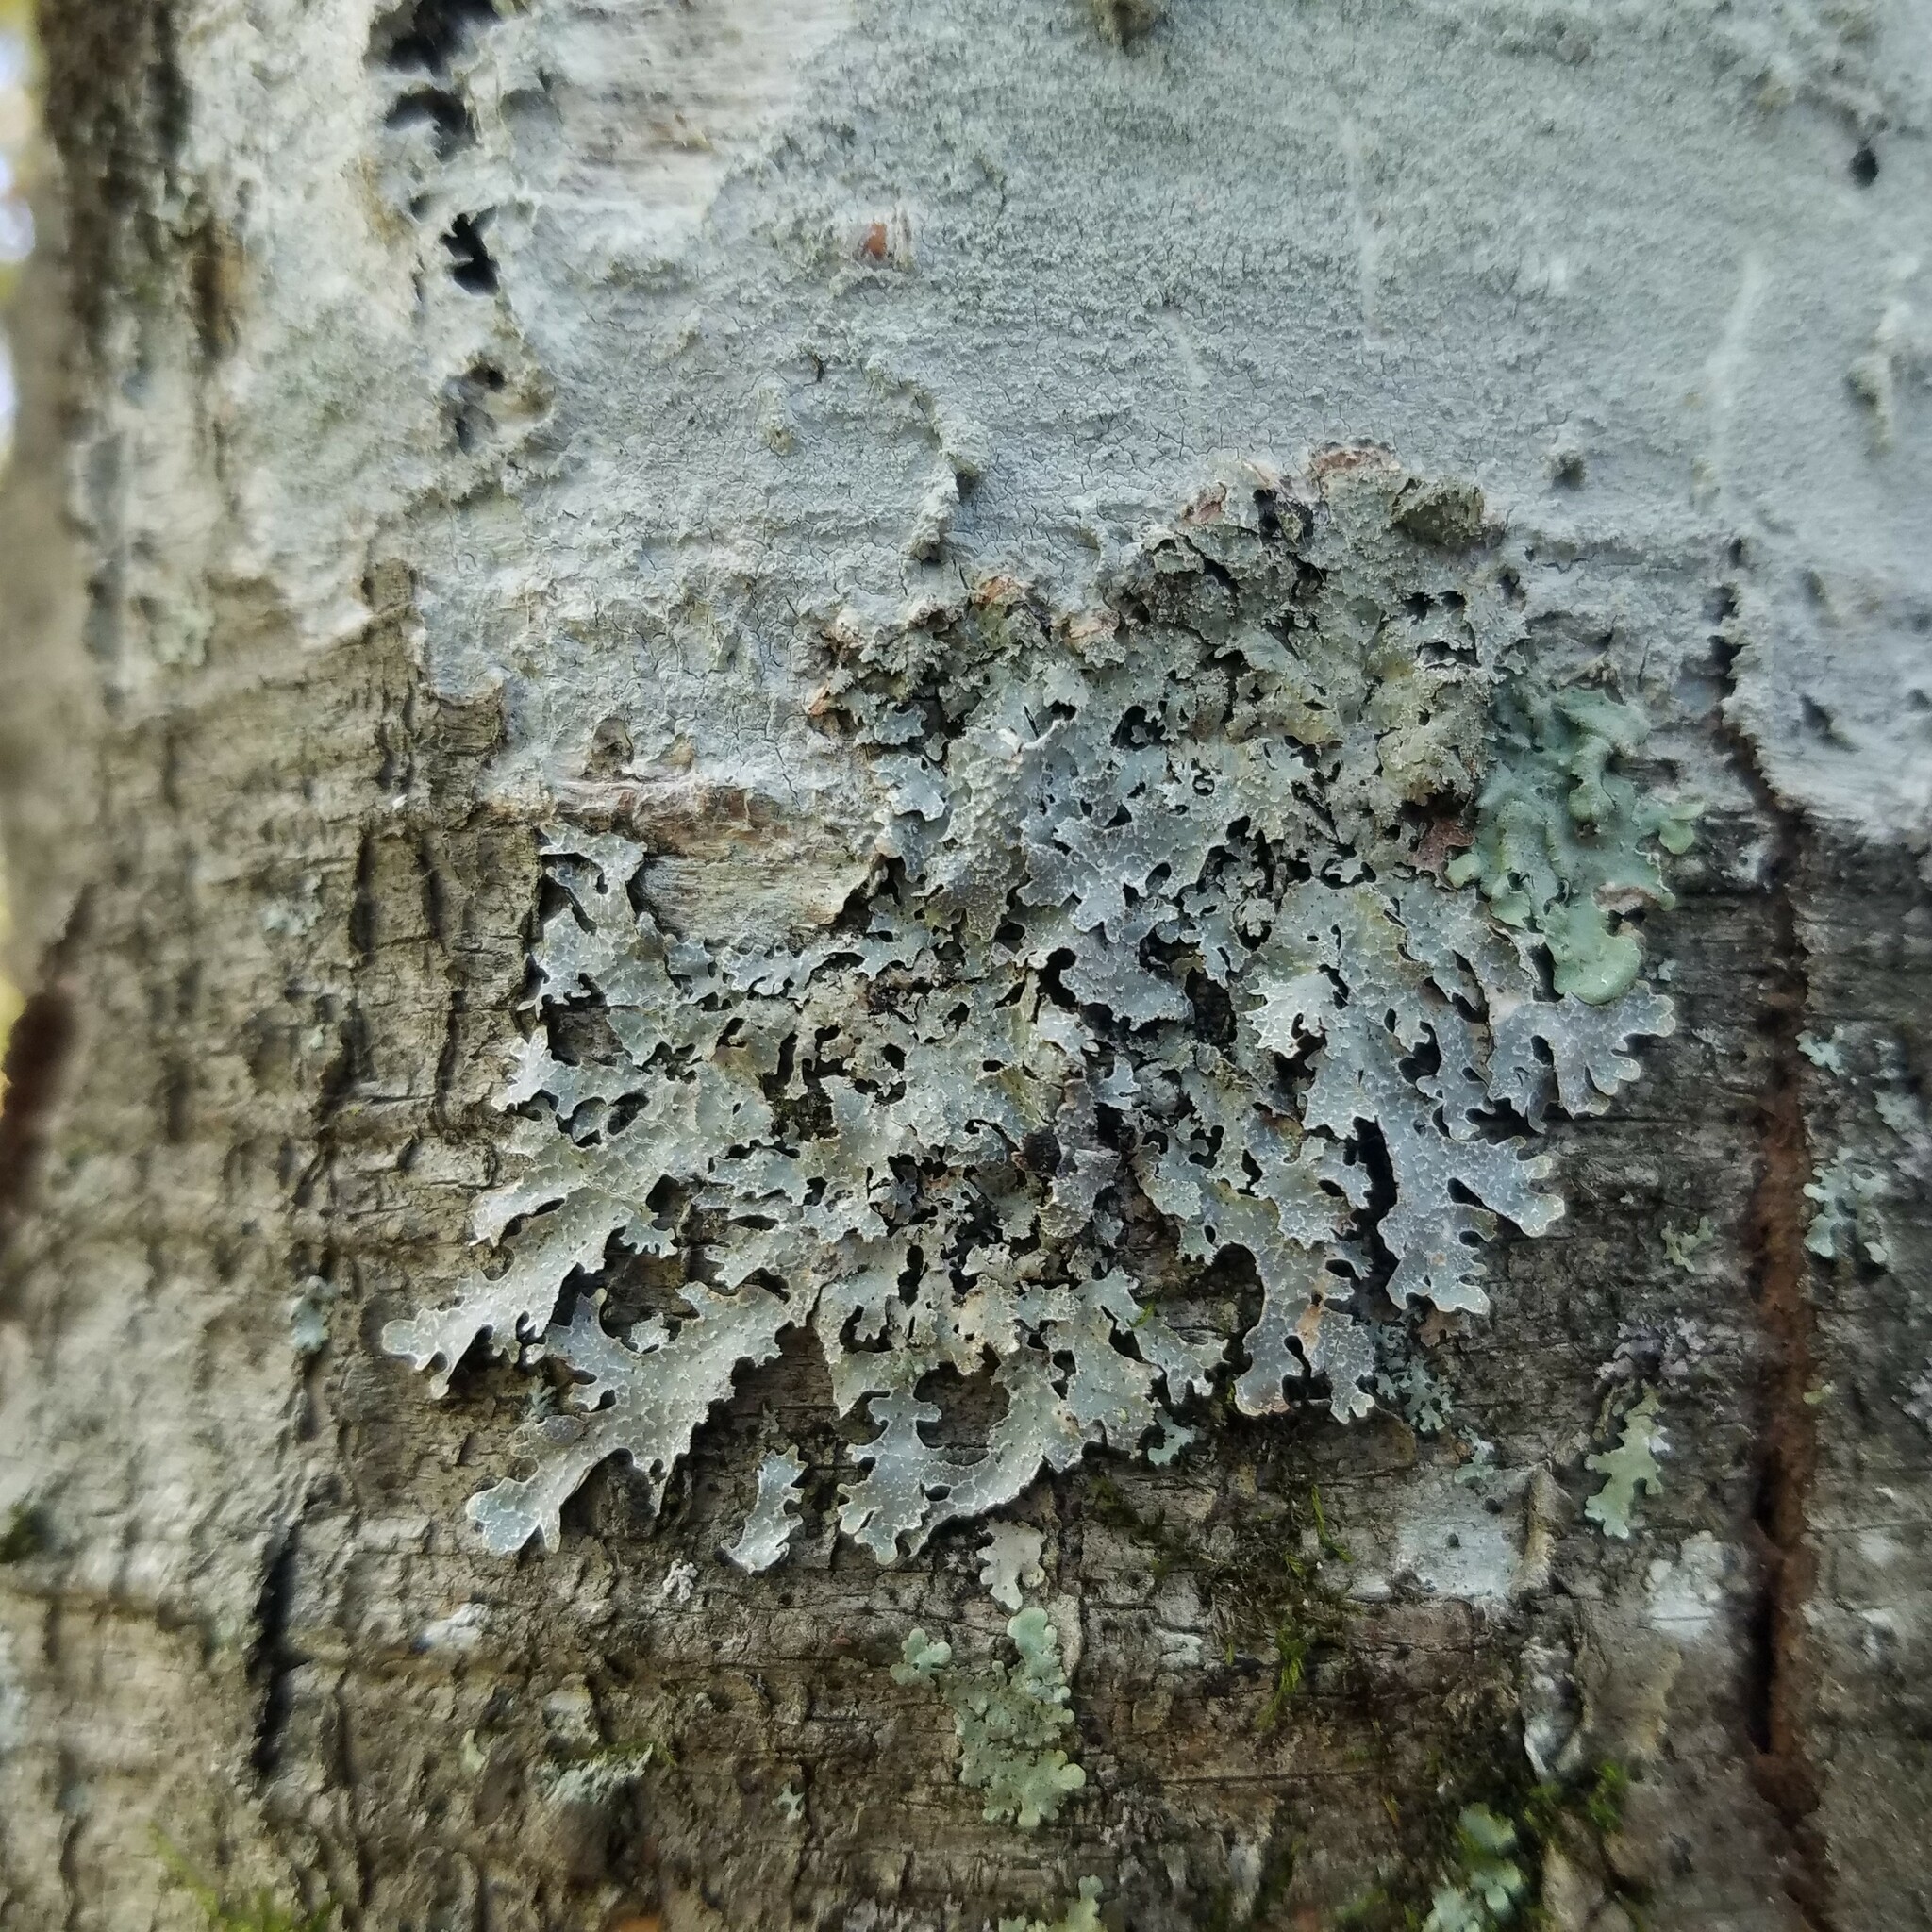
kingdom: Fungi
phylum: Ascomycota
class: Lecanoromycetes
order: Lecanorales
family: Parmeliaceae
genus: Parmelia
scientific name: Parmelia squarrosa
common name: Bottle brush shield lichen
